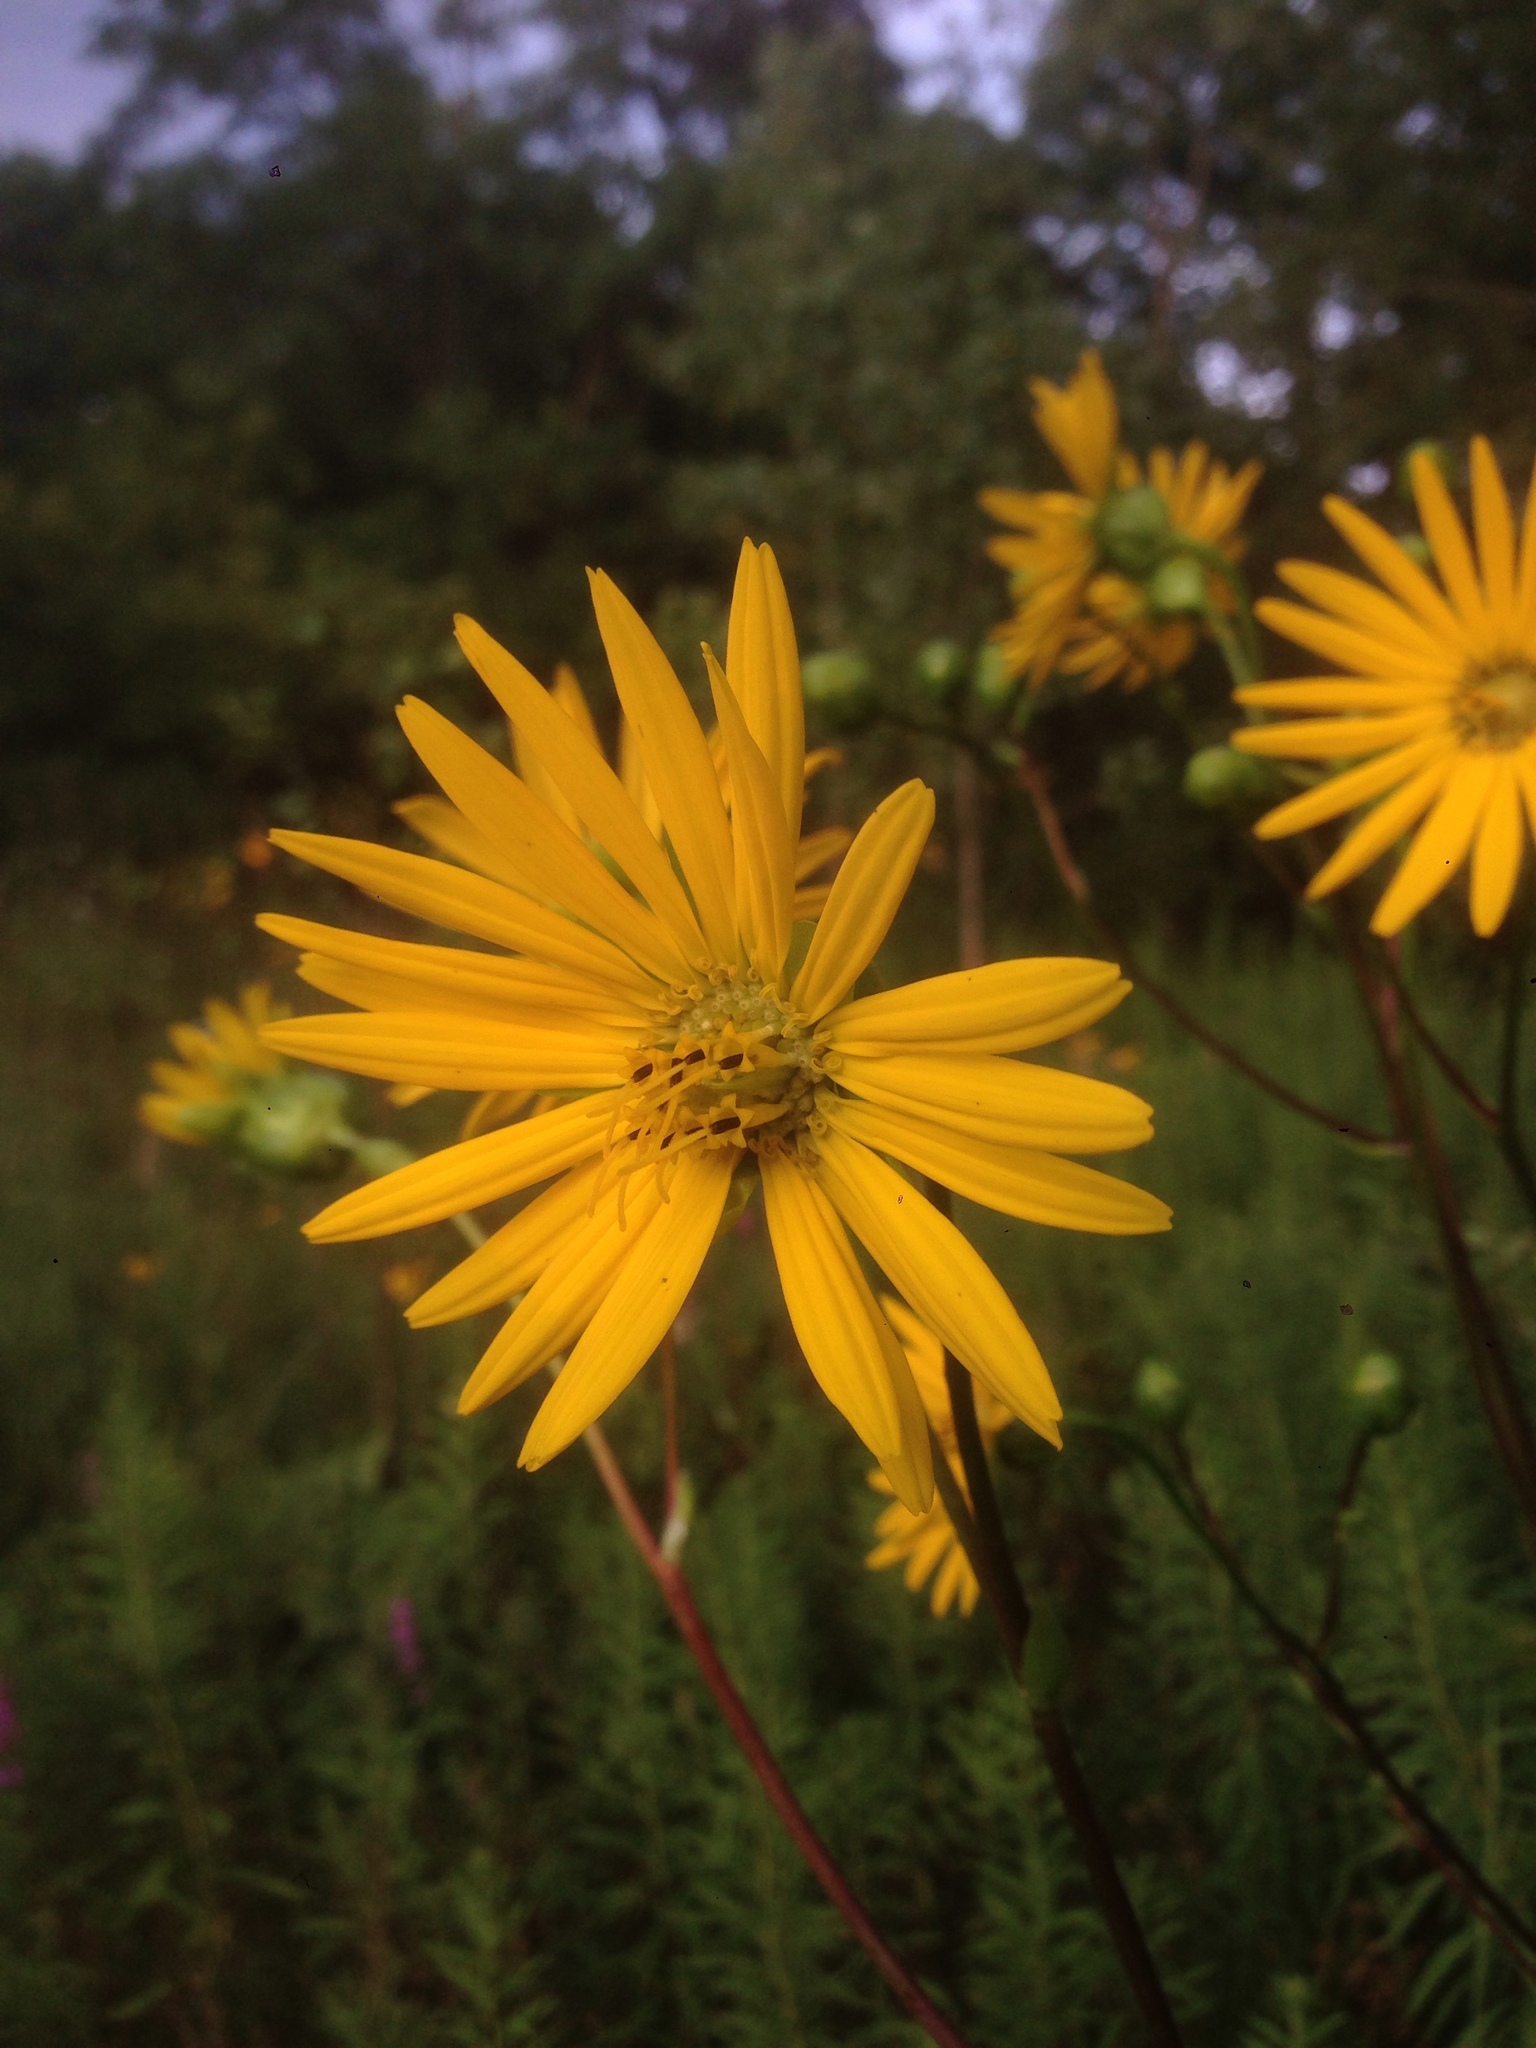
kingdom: Plantae
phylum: Tracheophyta
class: Magnoliopsida
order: Asterales
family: Asteraceae
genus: Silphium
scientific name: Silphium terebinthinaceum
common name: Basal-leaf rosinweed
